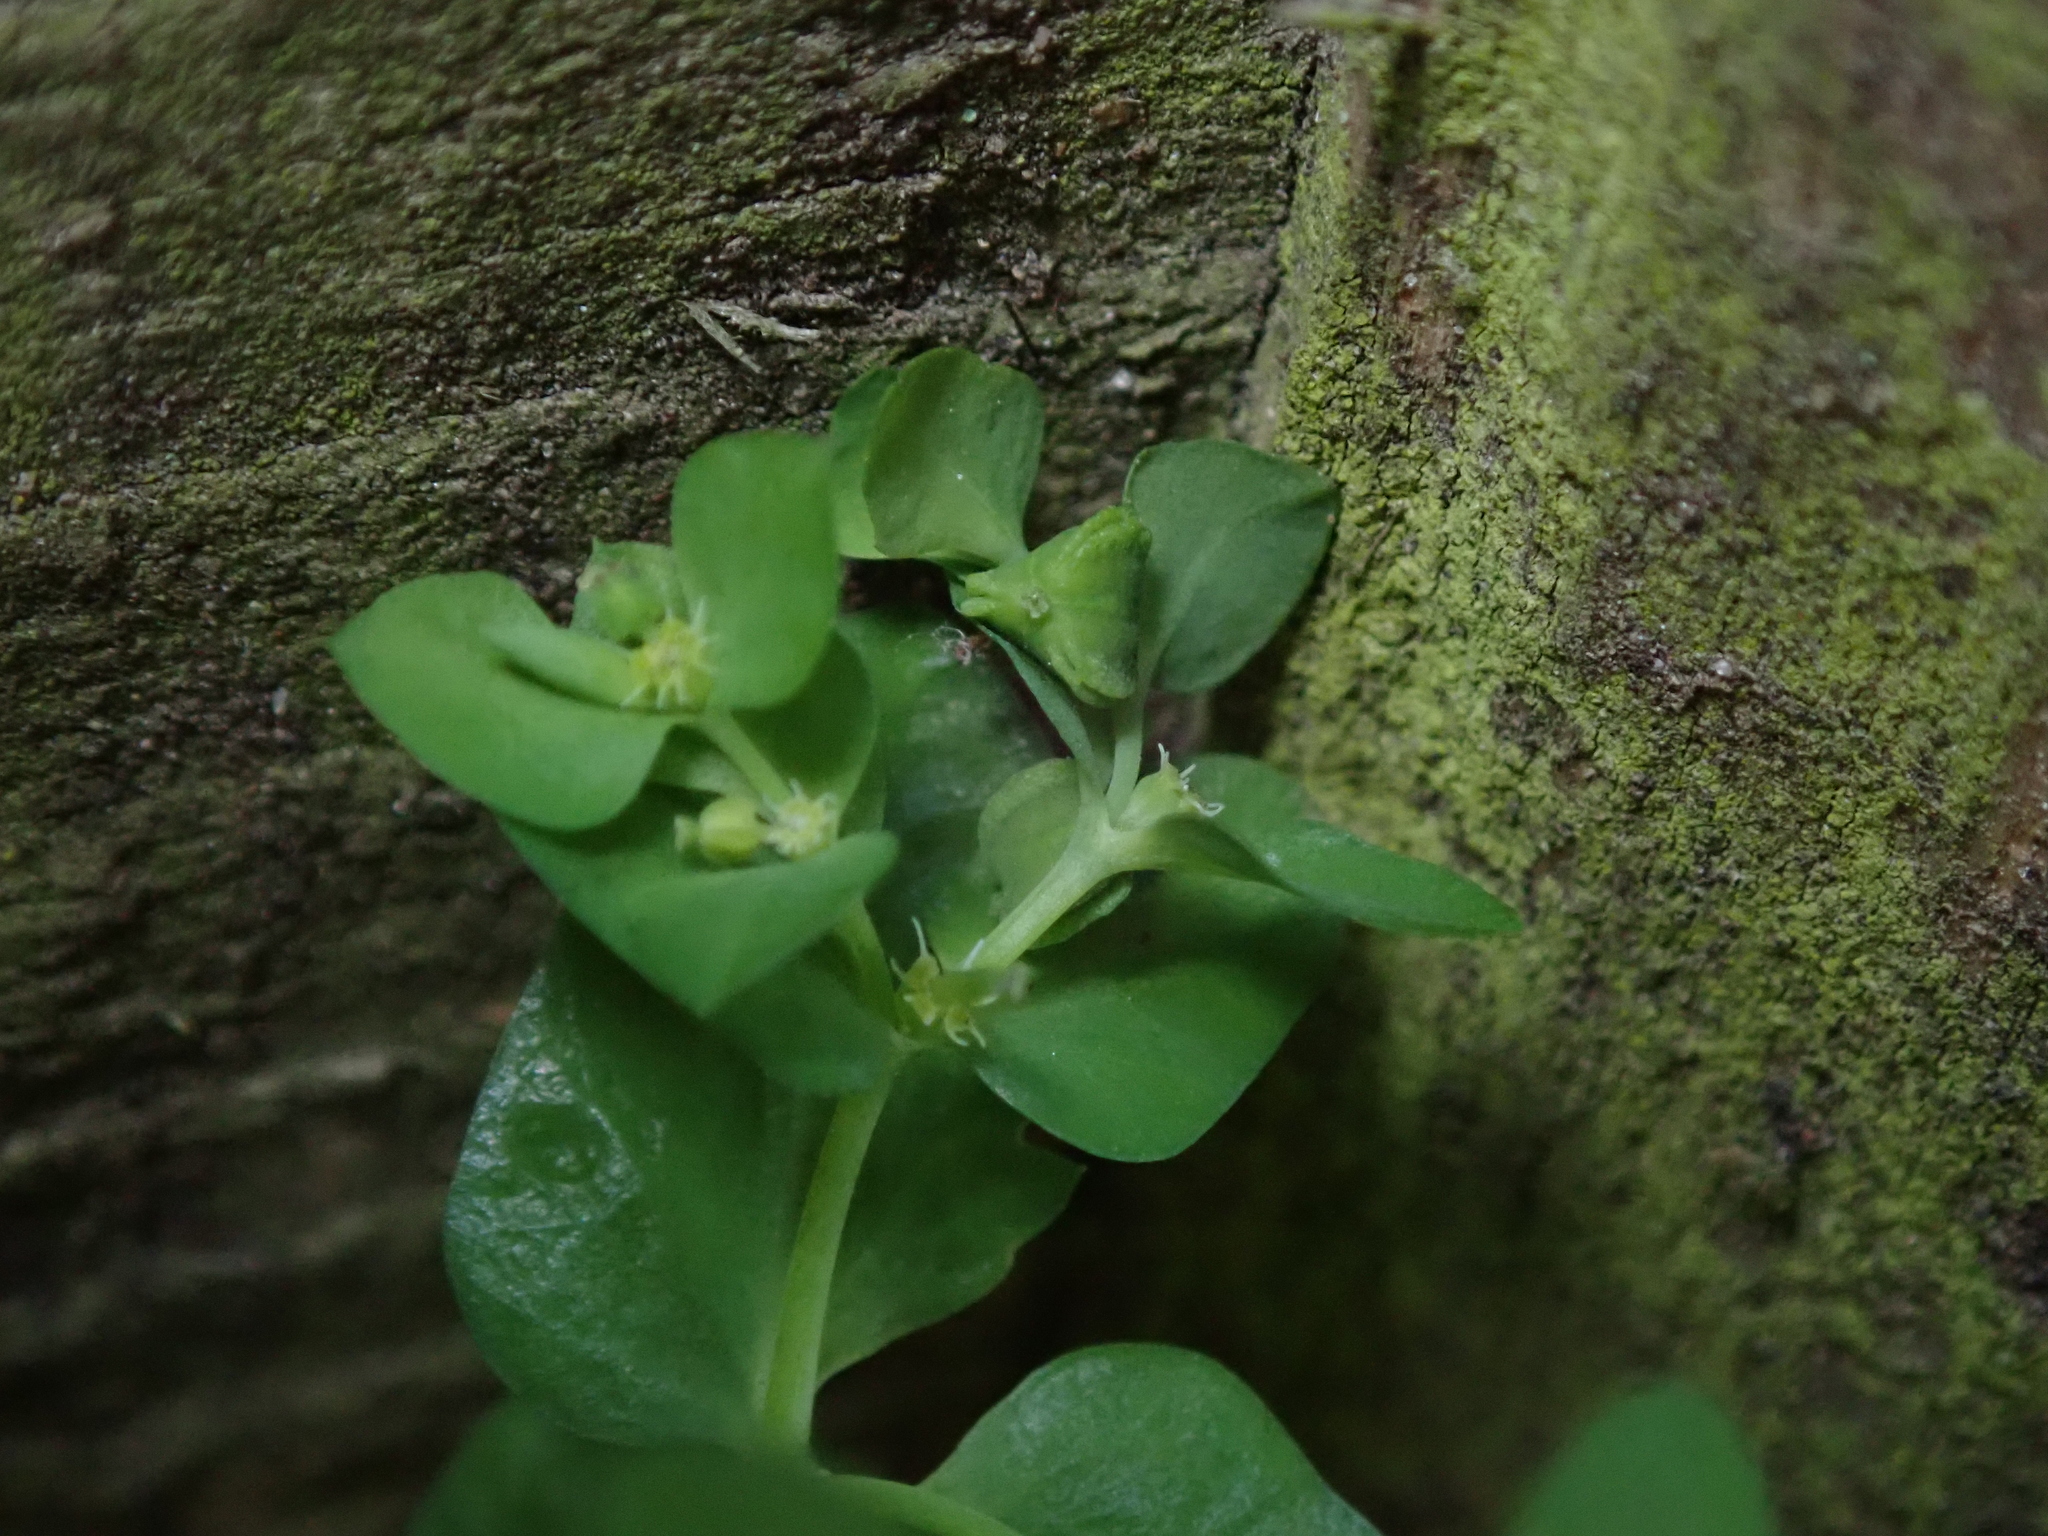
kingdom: Plantae
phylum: Tracheophyta
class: Magnoliopsida
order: Malpighiales
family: Euphorbiaceae
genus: Euphorbia
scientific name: Euphorbia peplus
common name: Petty spurge
